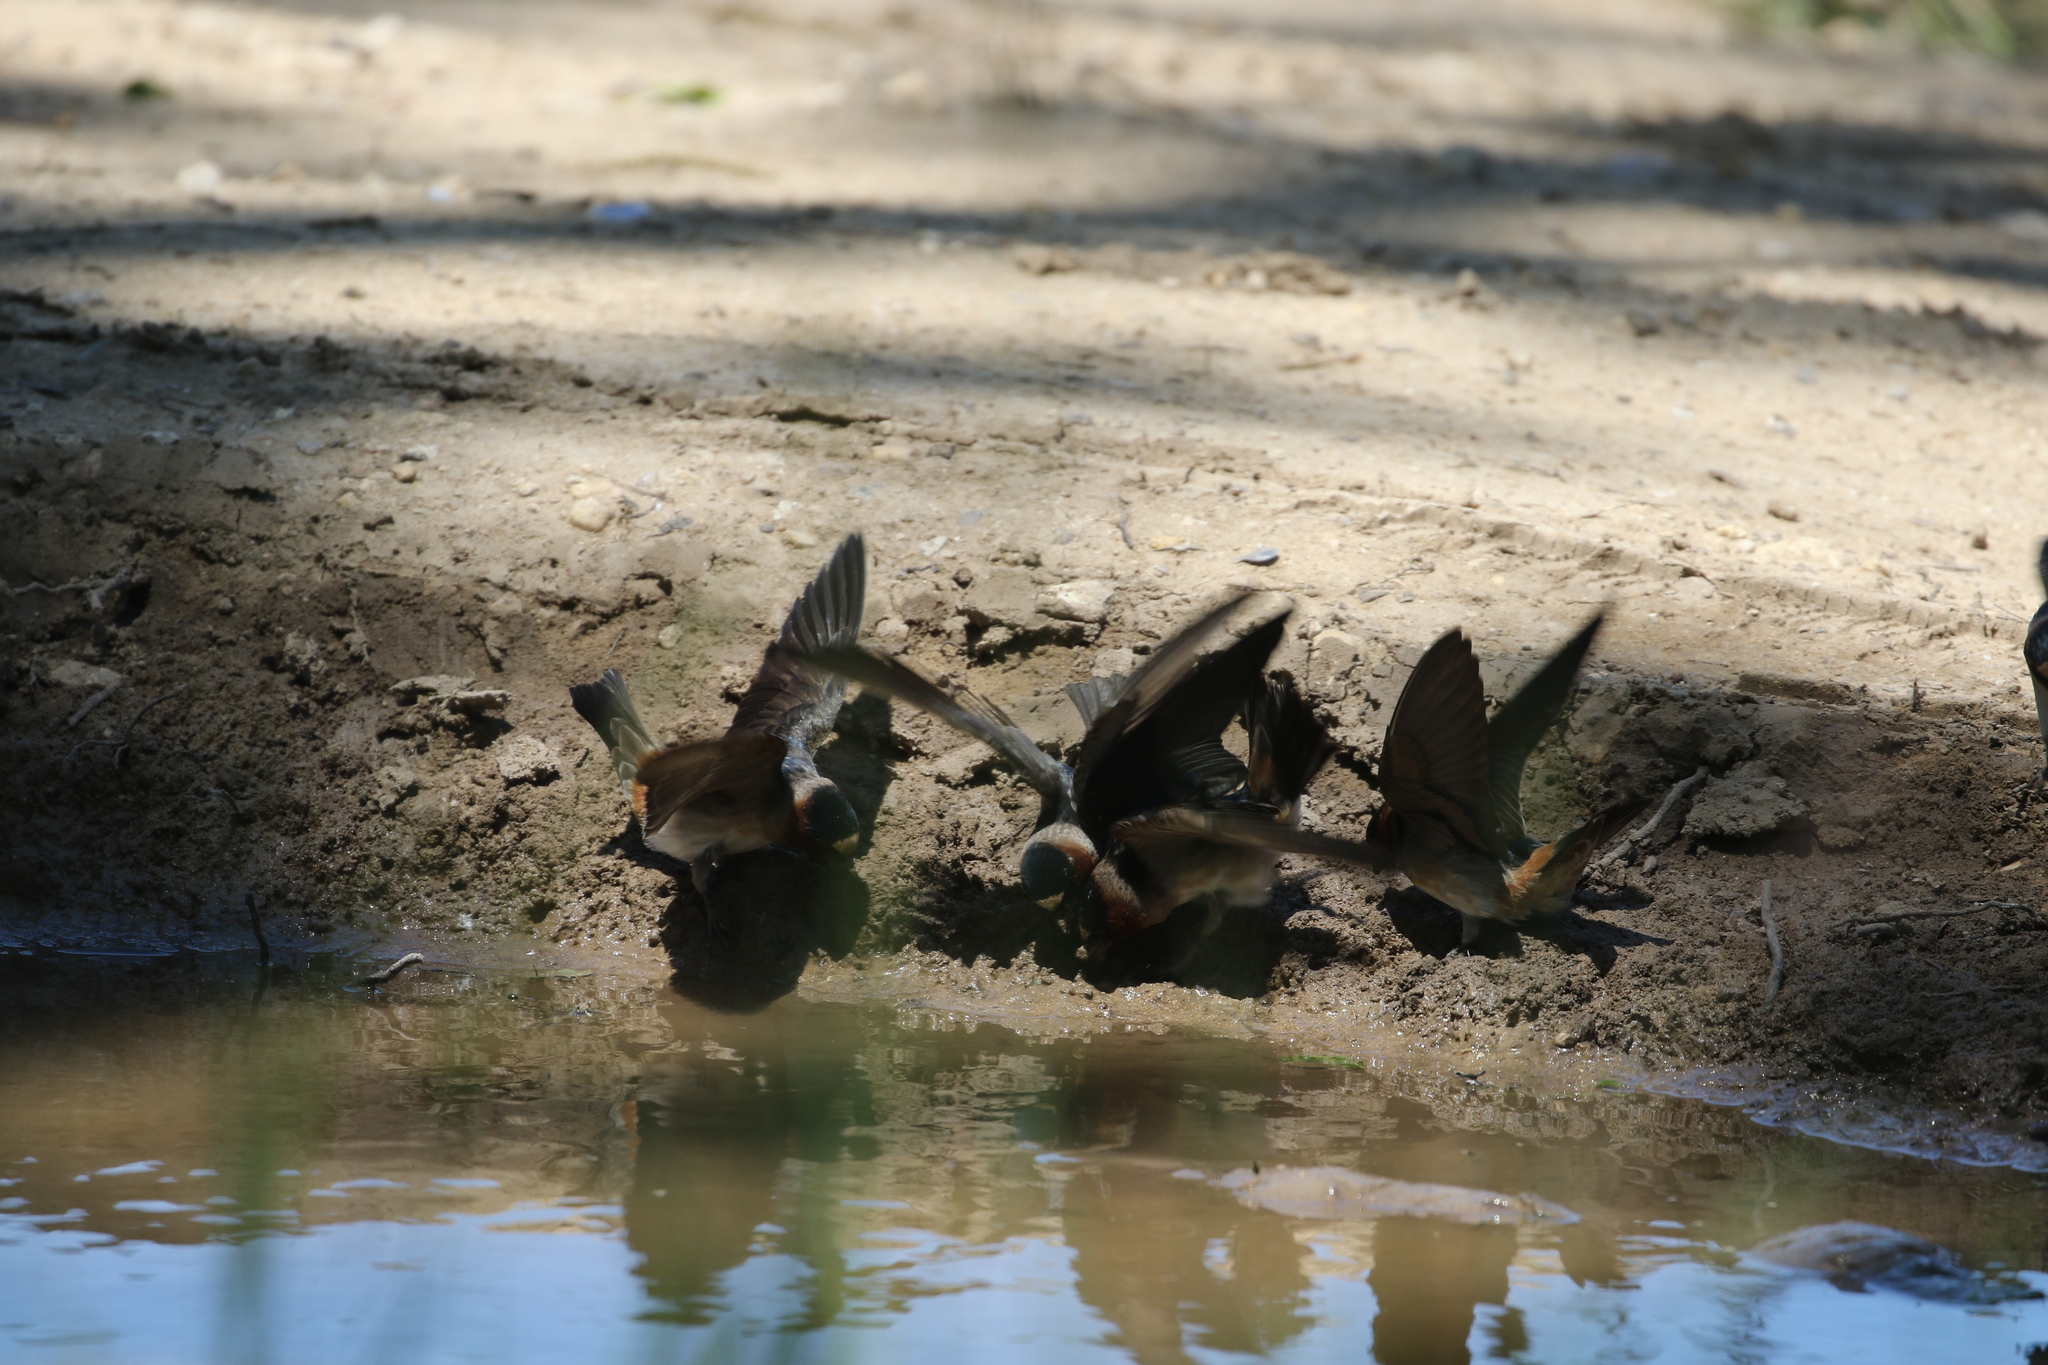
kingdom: Animalia
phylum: Chordata
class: Aves
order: Passeriformes
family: Hirundinidae
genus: Petrochelidon
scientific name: Petrochelidon pyrrhonota
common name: American cliff swallow
